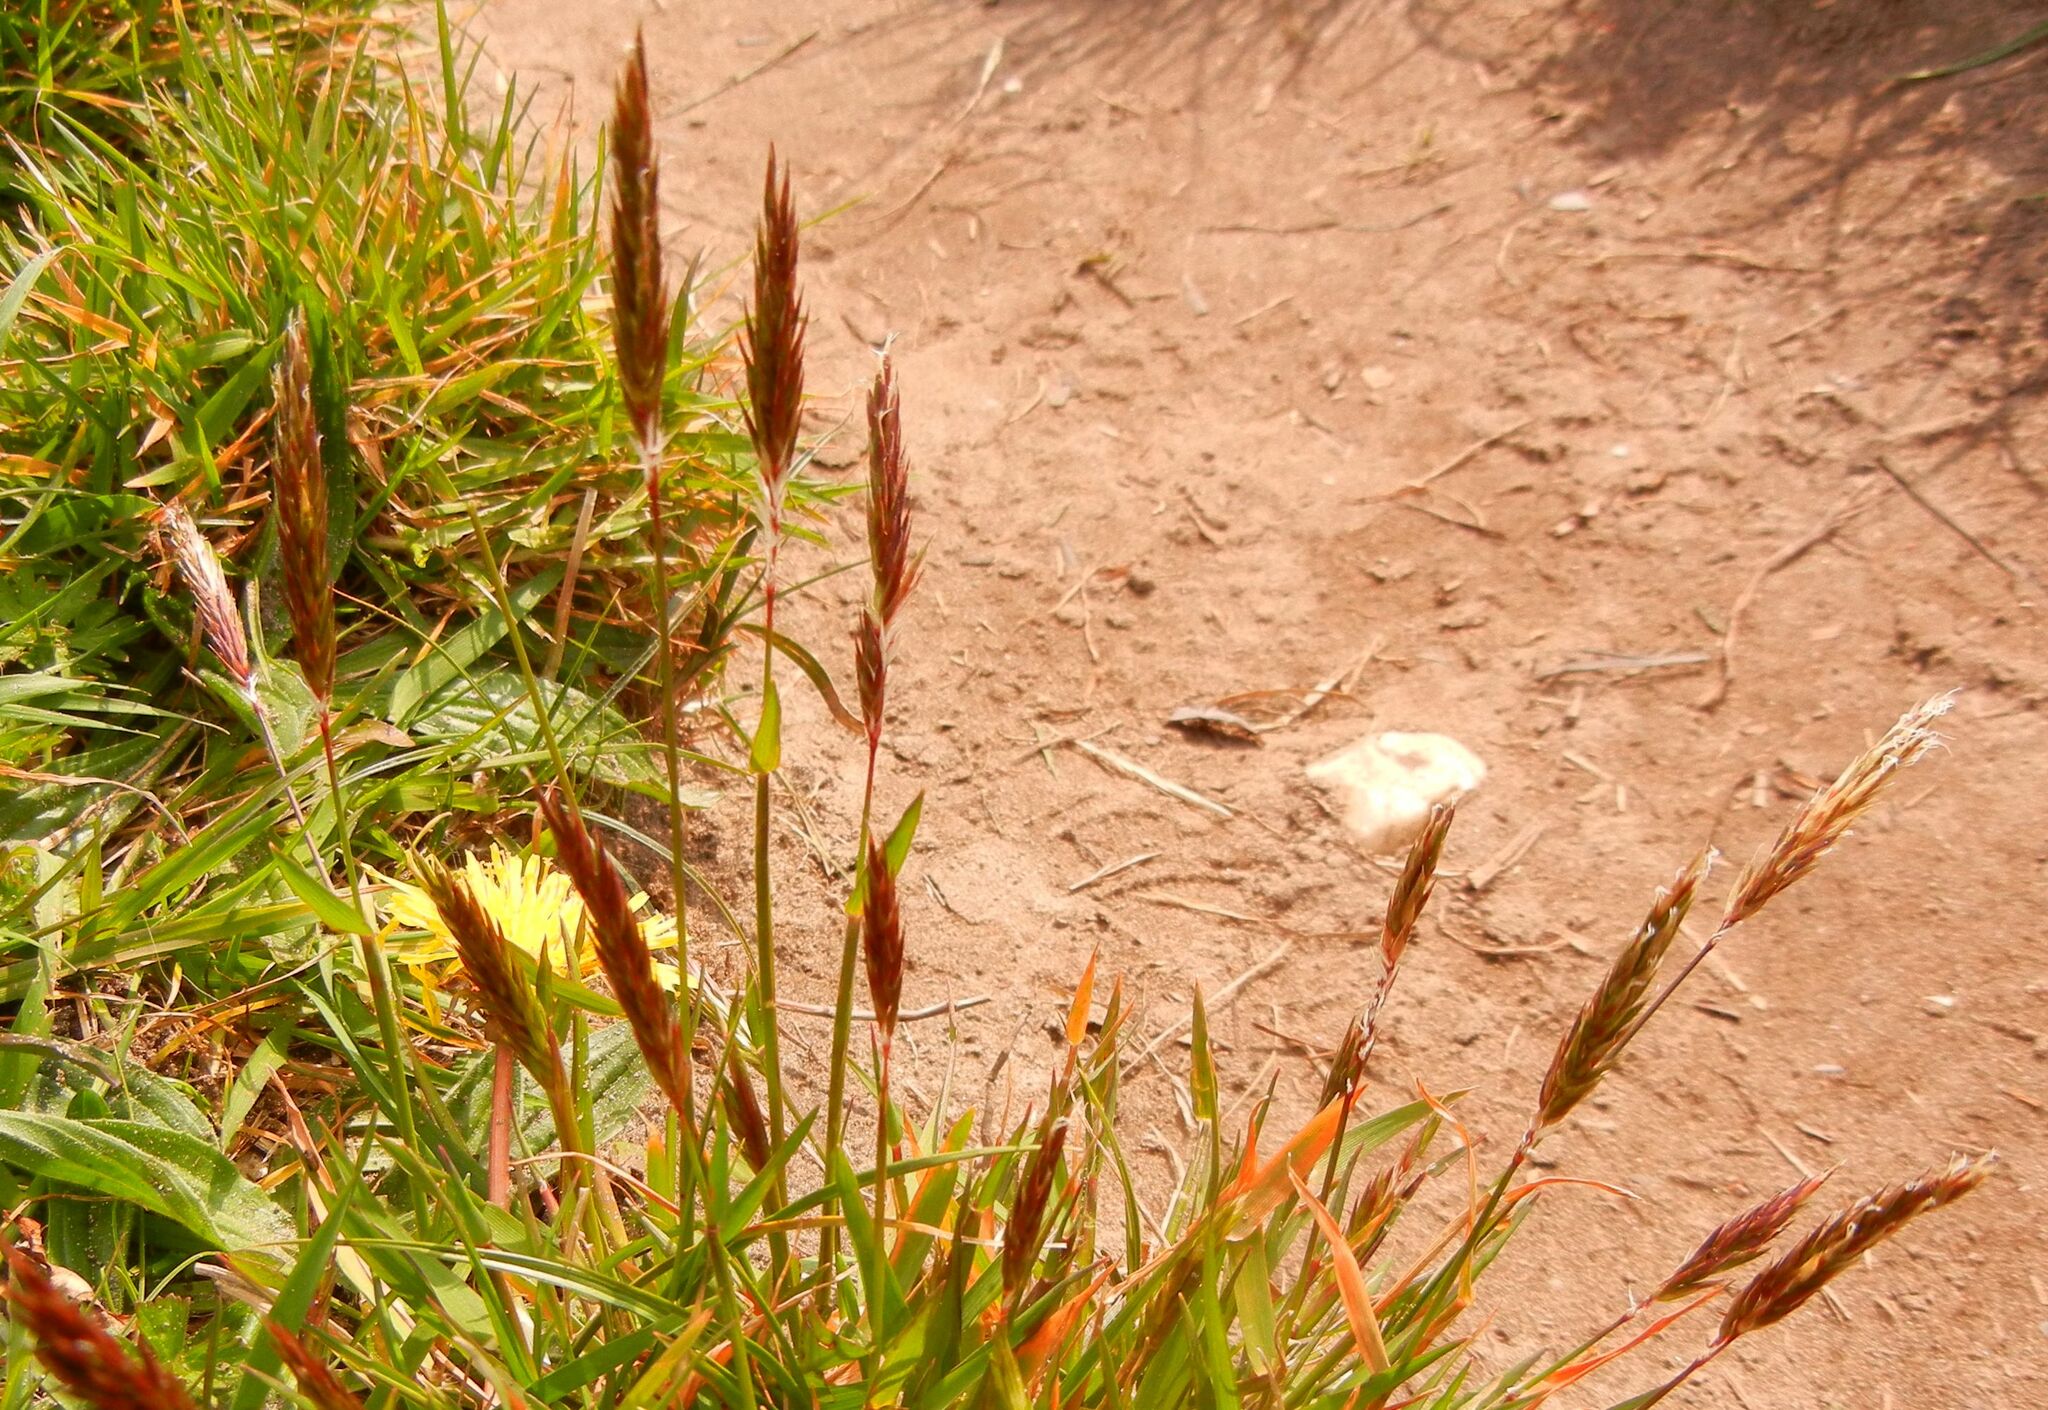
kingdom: Plantae
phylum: Tracheophyta
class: Liliopsida
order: Poales
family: Poaceae
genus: Anthoxanthum
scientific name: Anthoxanthum odoratum
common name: Sweet vernalgrass
